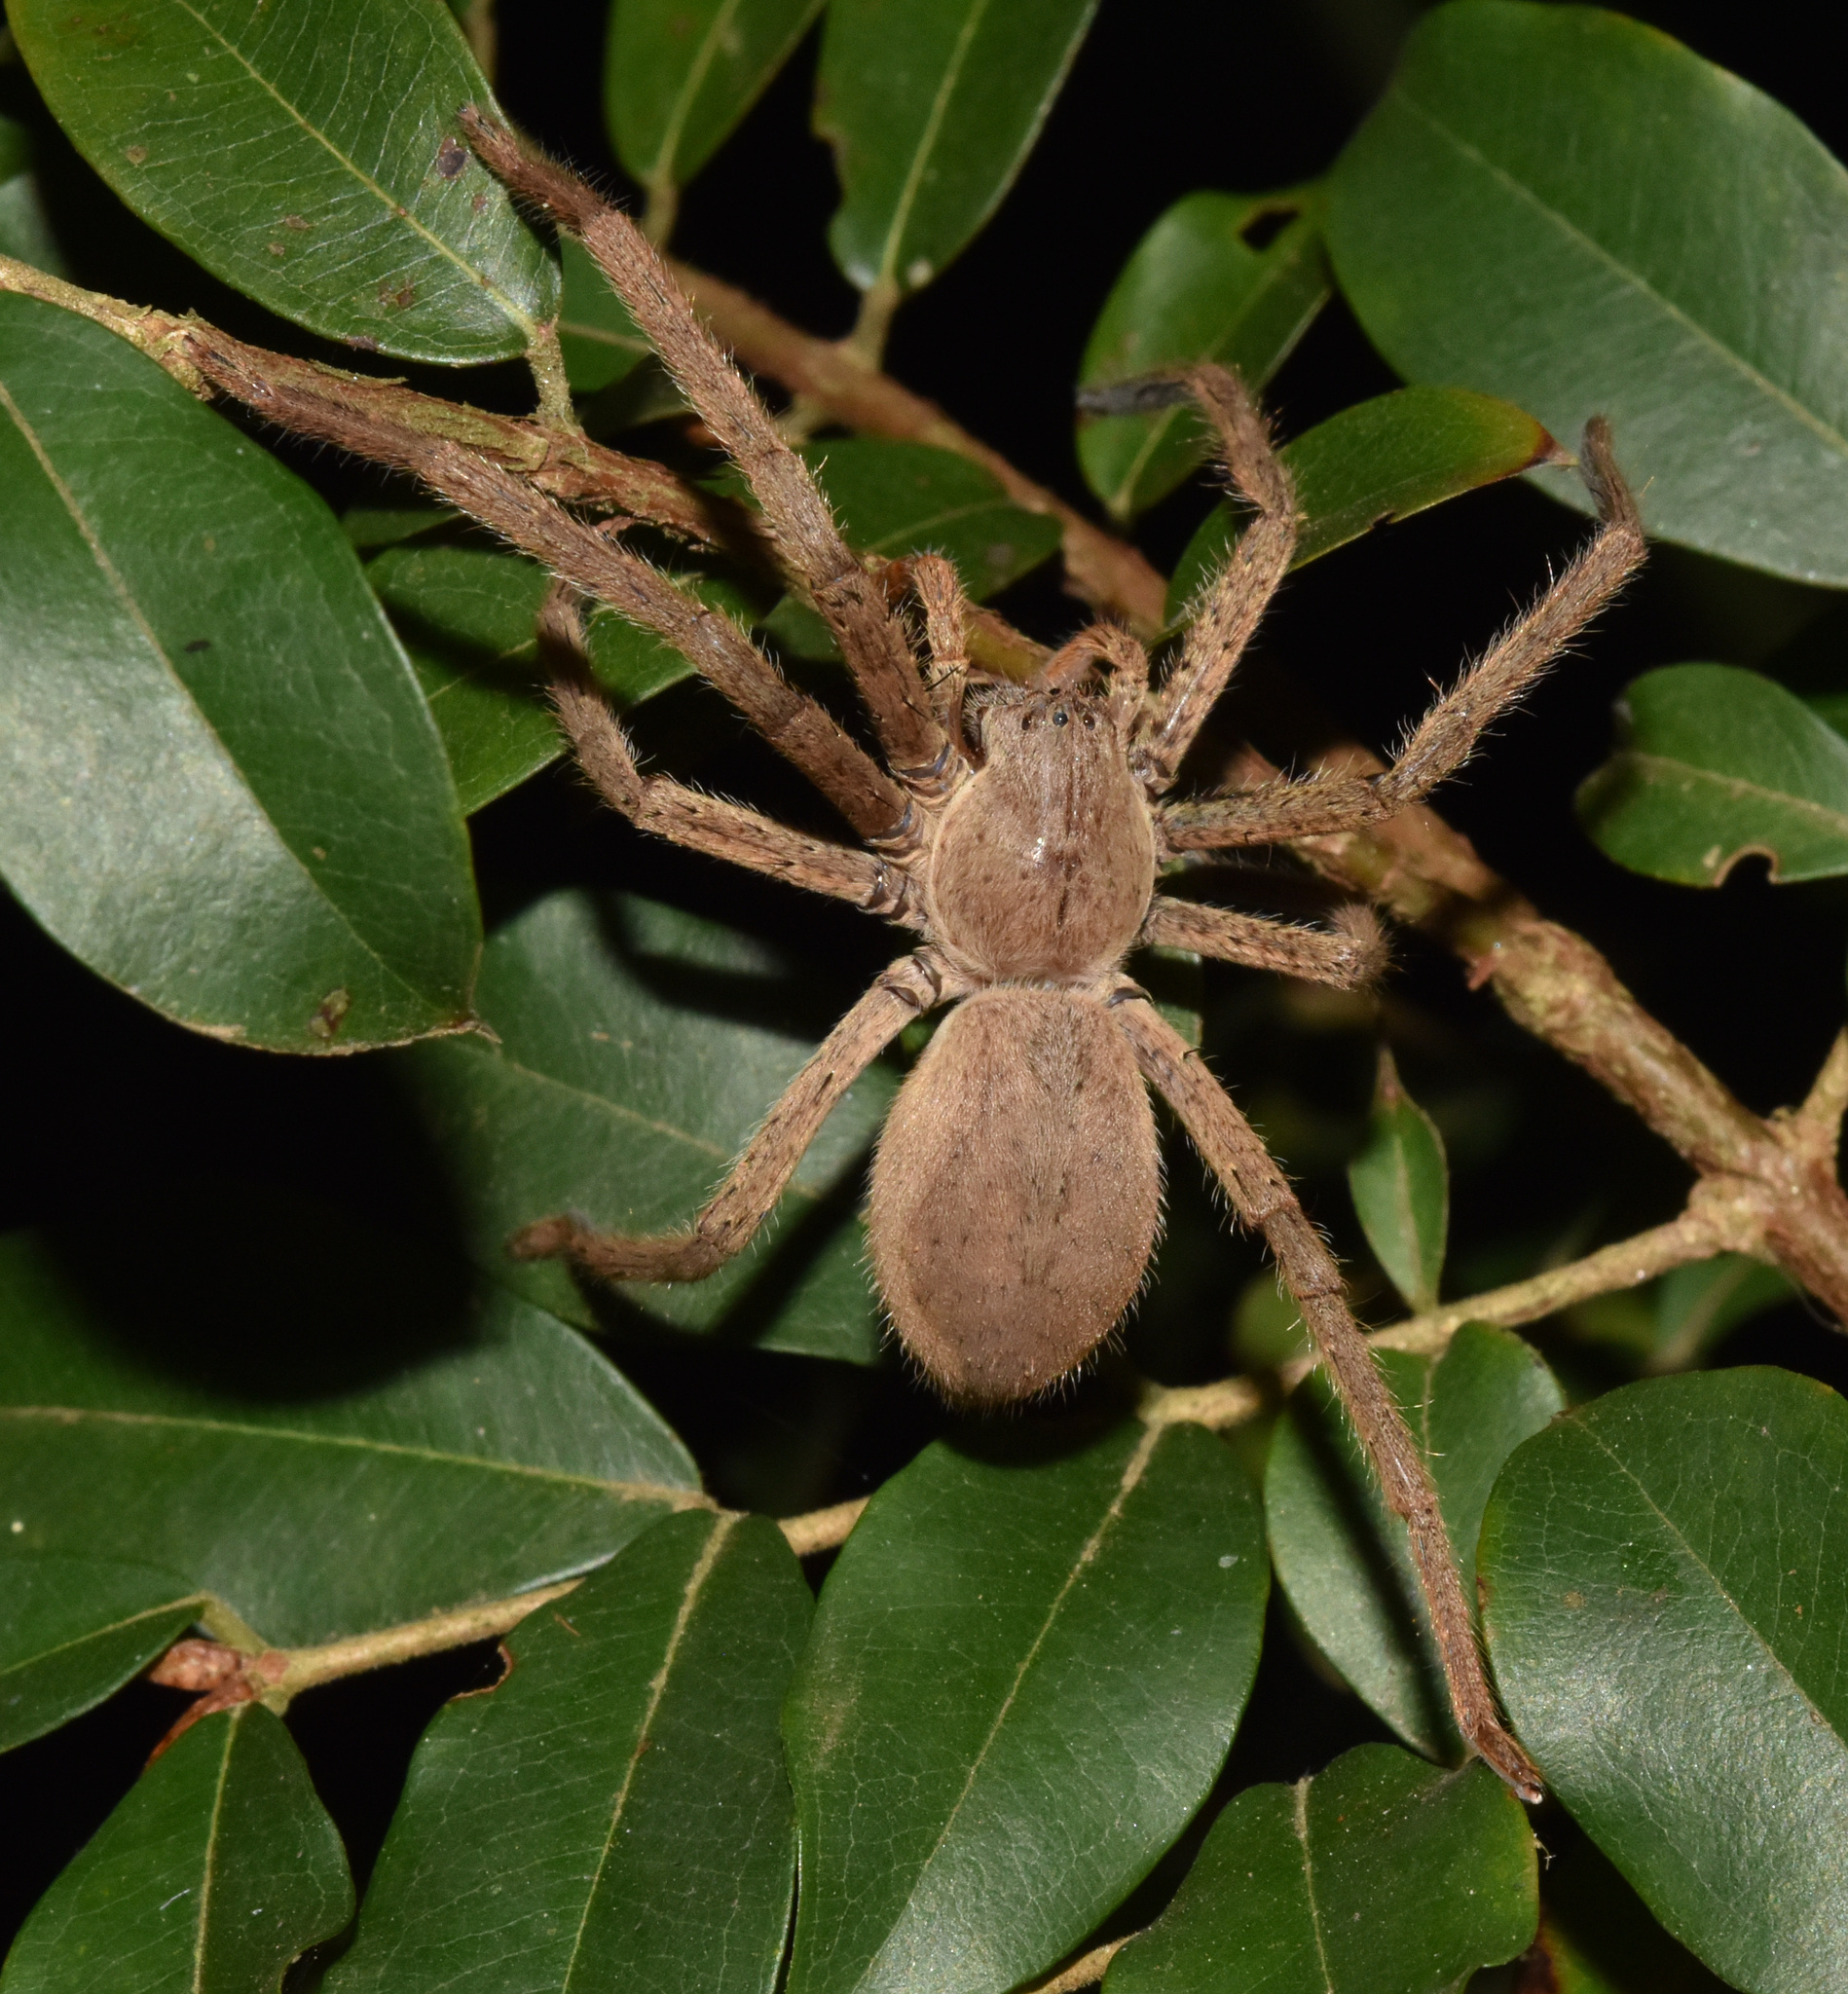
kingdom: Animalia
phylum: Arthropoda
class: Arachnida
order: Araneae
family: Sparassidae
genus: Palystes
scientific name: Palystes superciliosus
